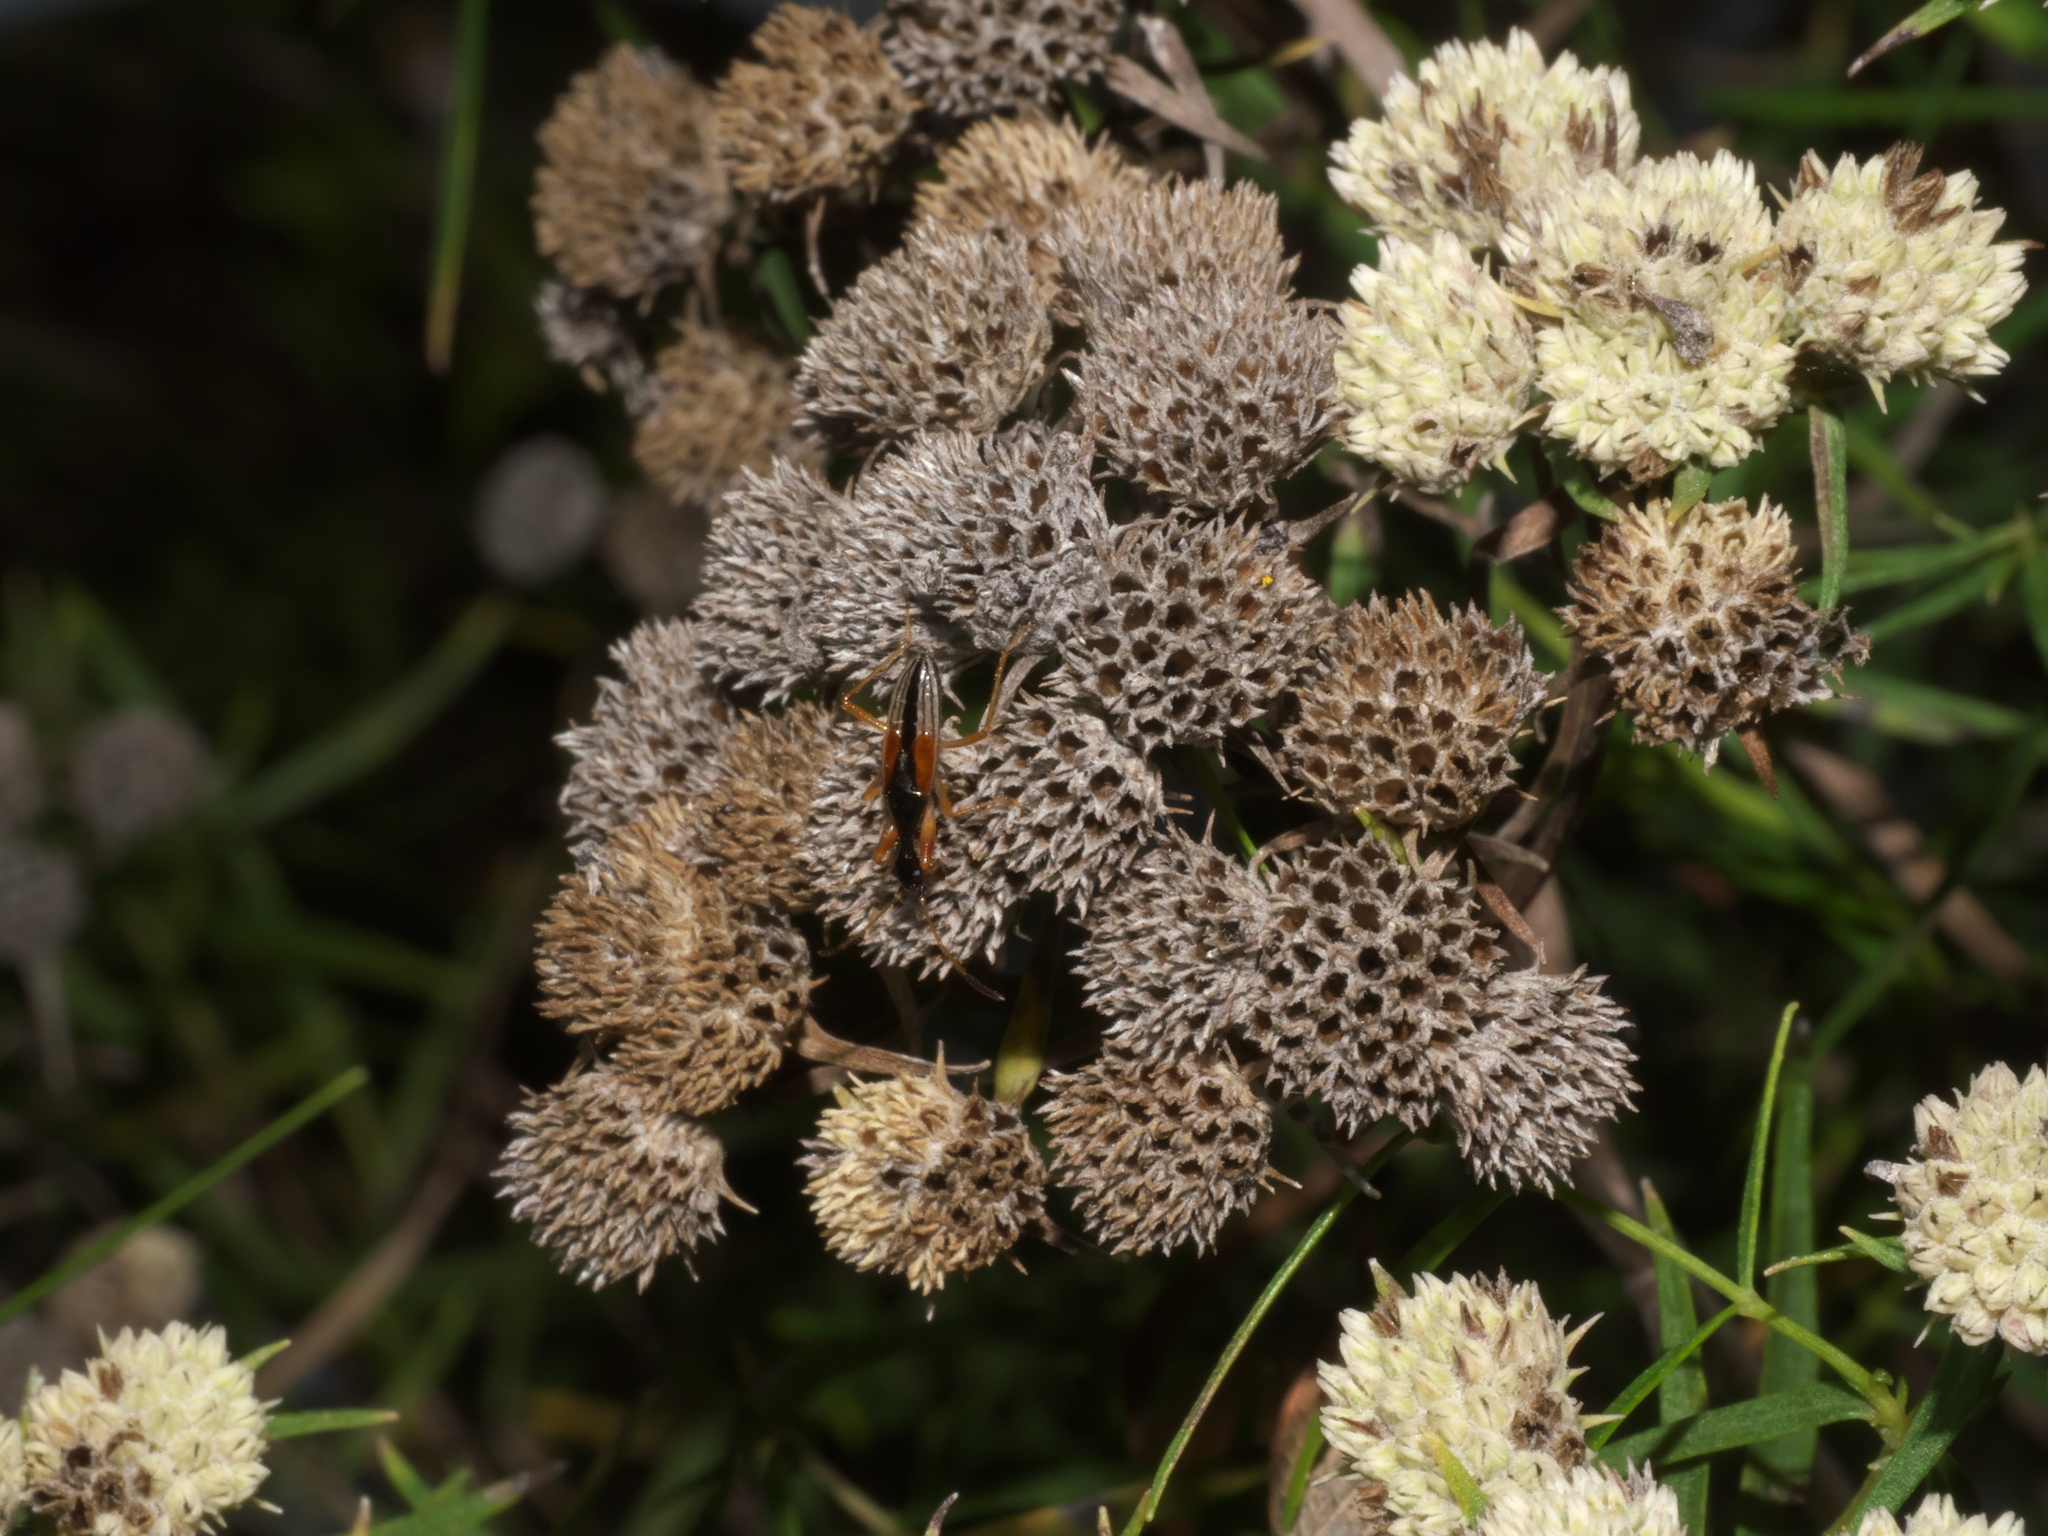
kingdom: Animalia
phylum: Arthropoda
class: Insecta
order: Hemiptera
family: Rhyparochromidae
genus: Myodocha
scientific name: Myodocha serripes
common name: Long-necked seed bug
